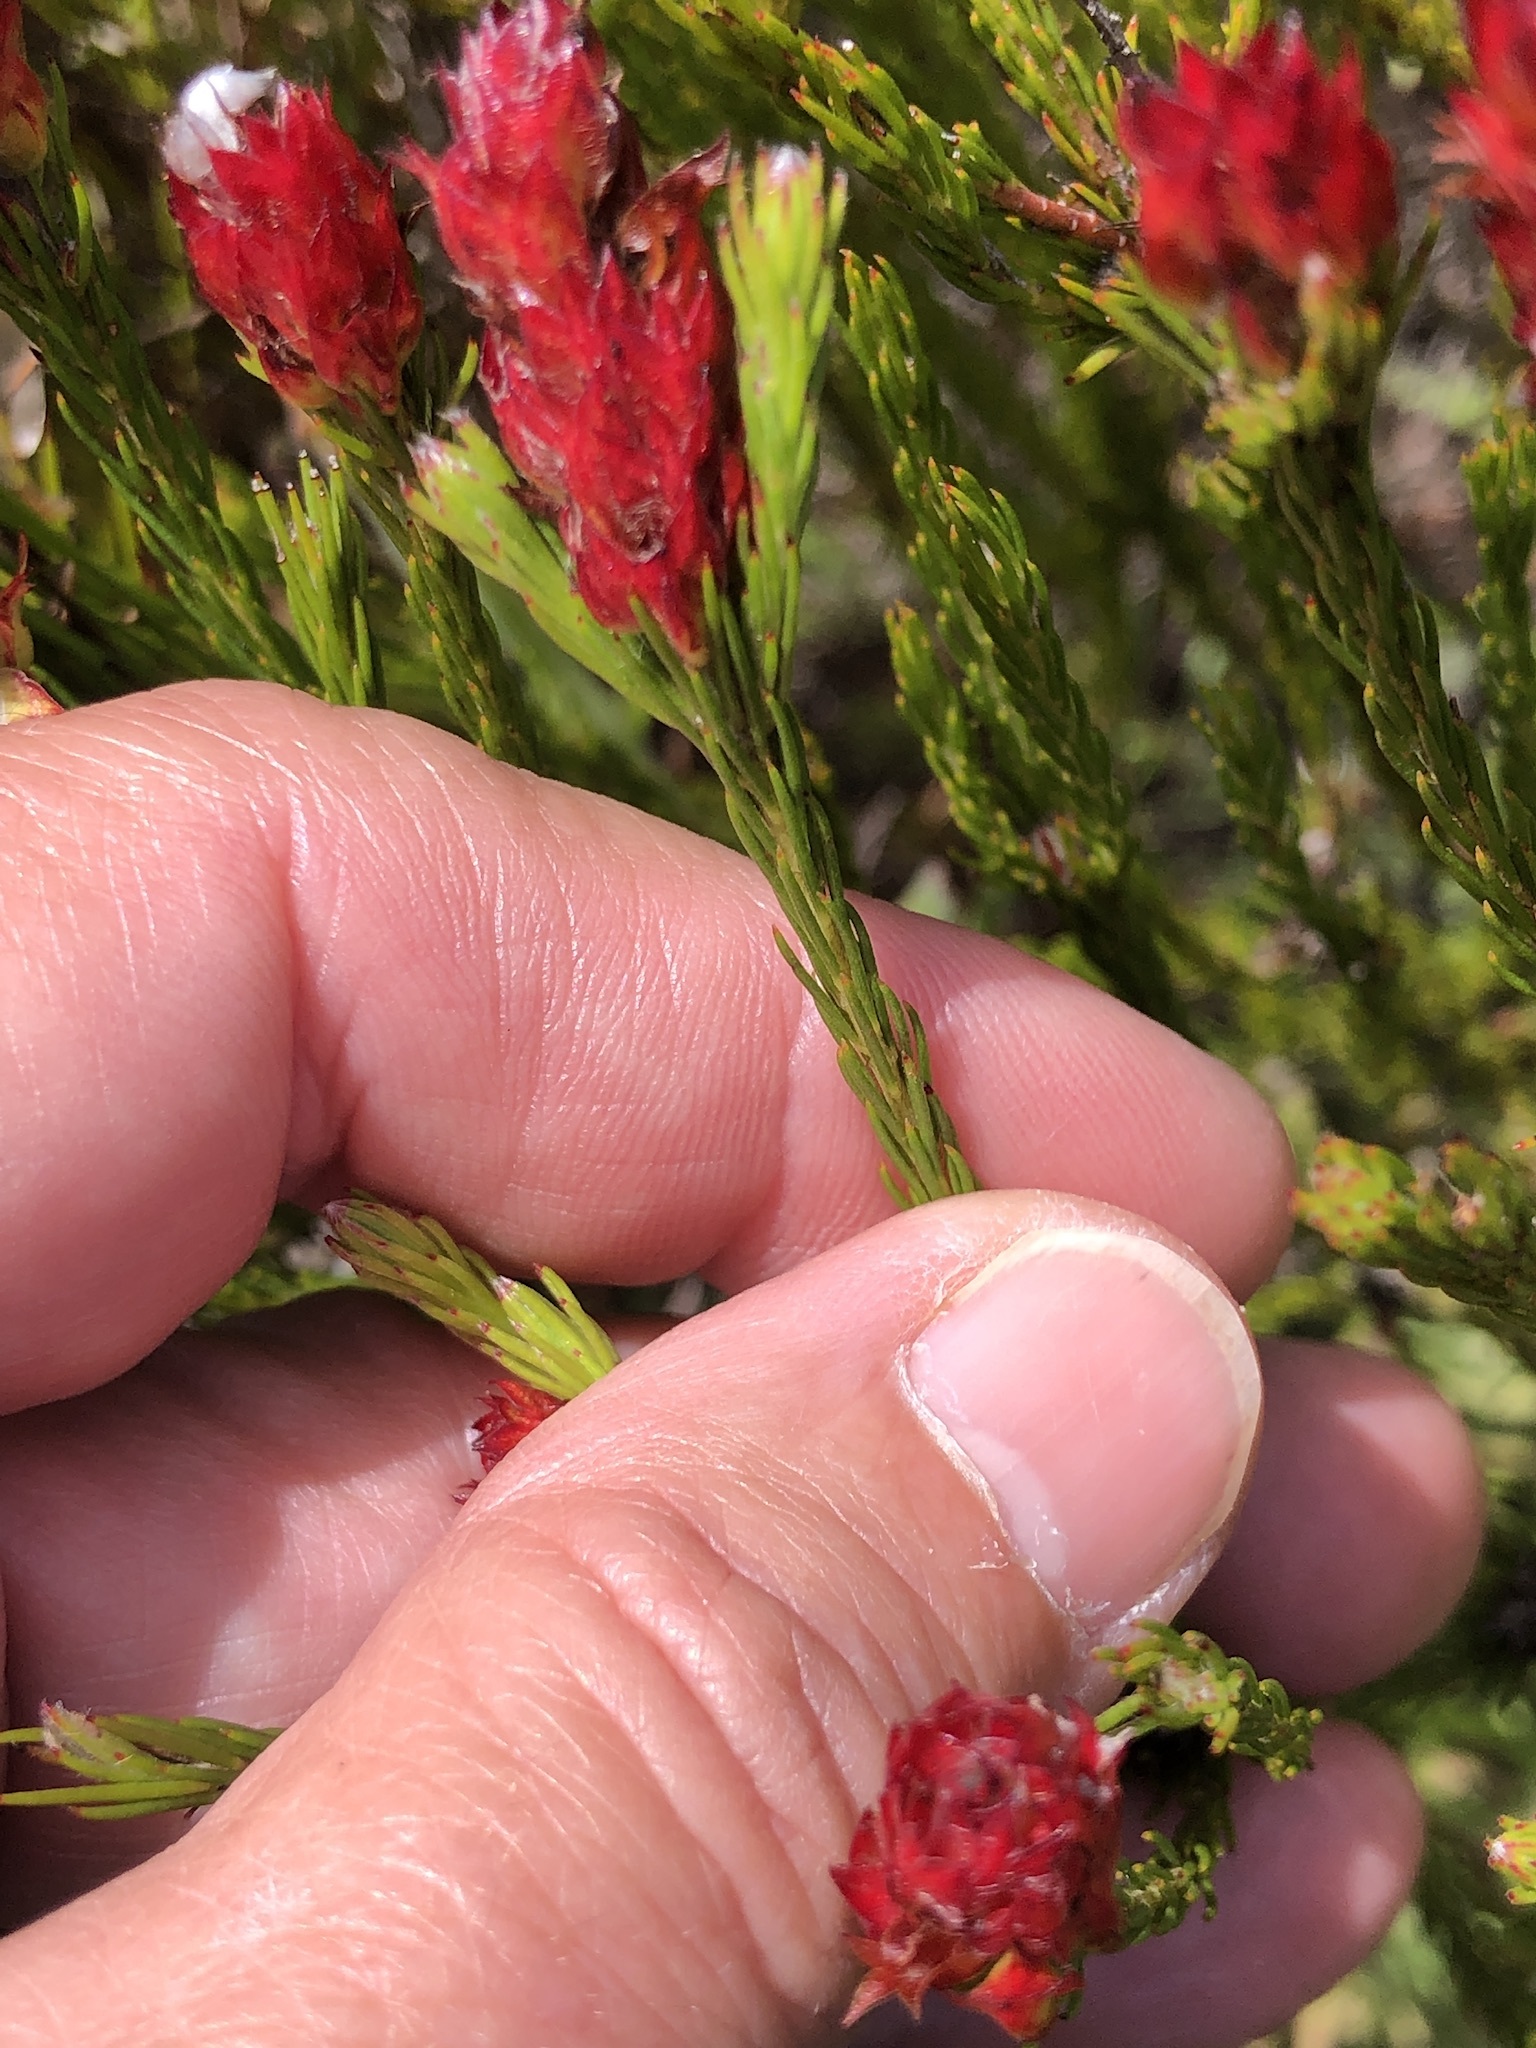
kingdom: Plantae
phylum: Tracheophyta
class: Magnoliopsida
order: Proteales
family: Proteaceae
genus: Spatalla
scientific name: Spatalla squamata
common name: Silky spoon
